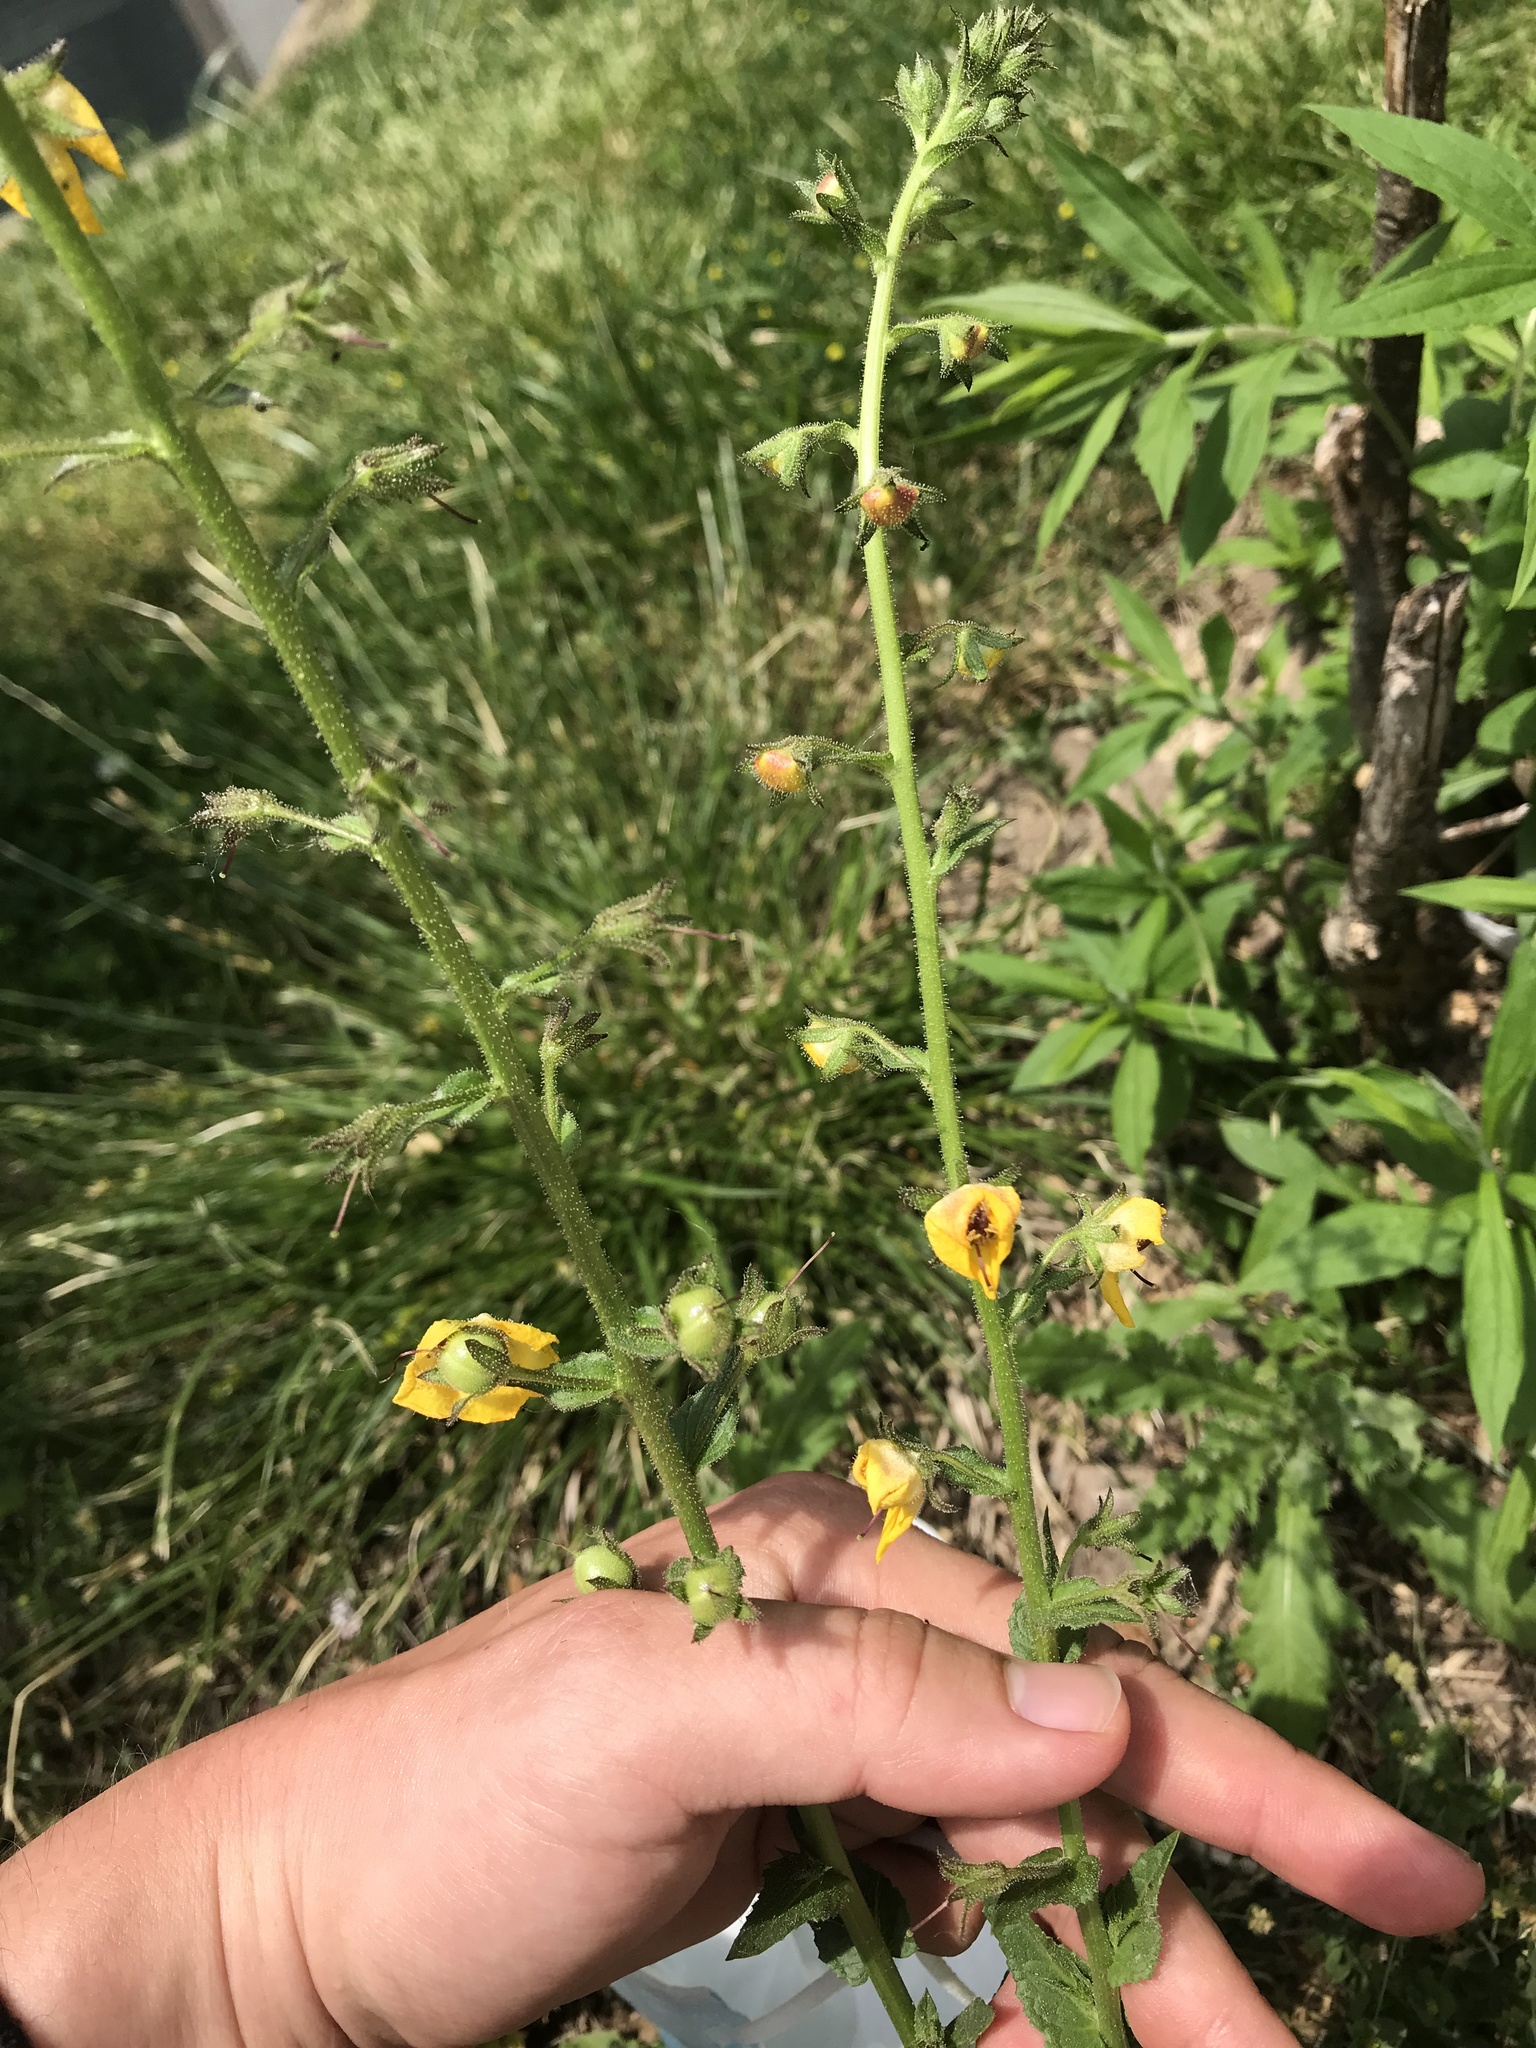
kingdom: Plantae
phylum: Tracheophyta
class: Magnoliopsida
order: Lamiales
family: Scrophulariaceae
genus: Verbascum
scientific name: Verbascum blattaria
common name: Moth mullein
